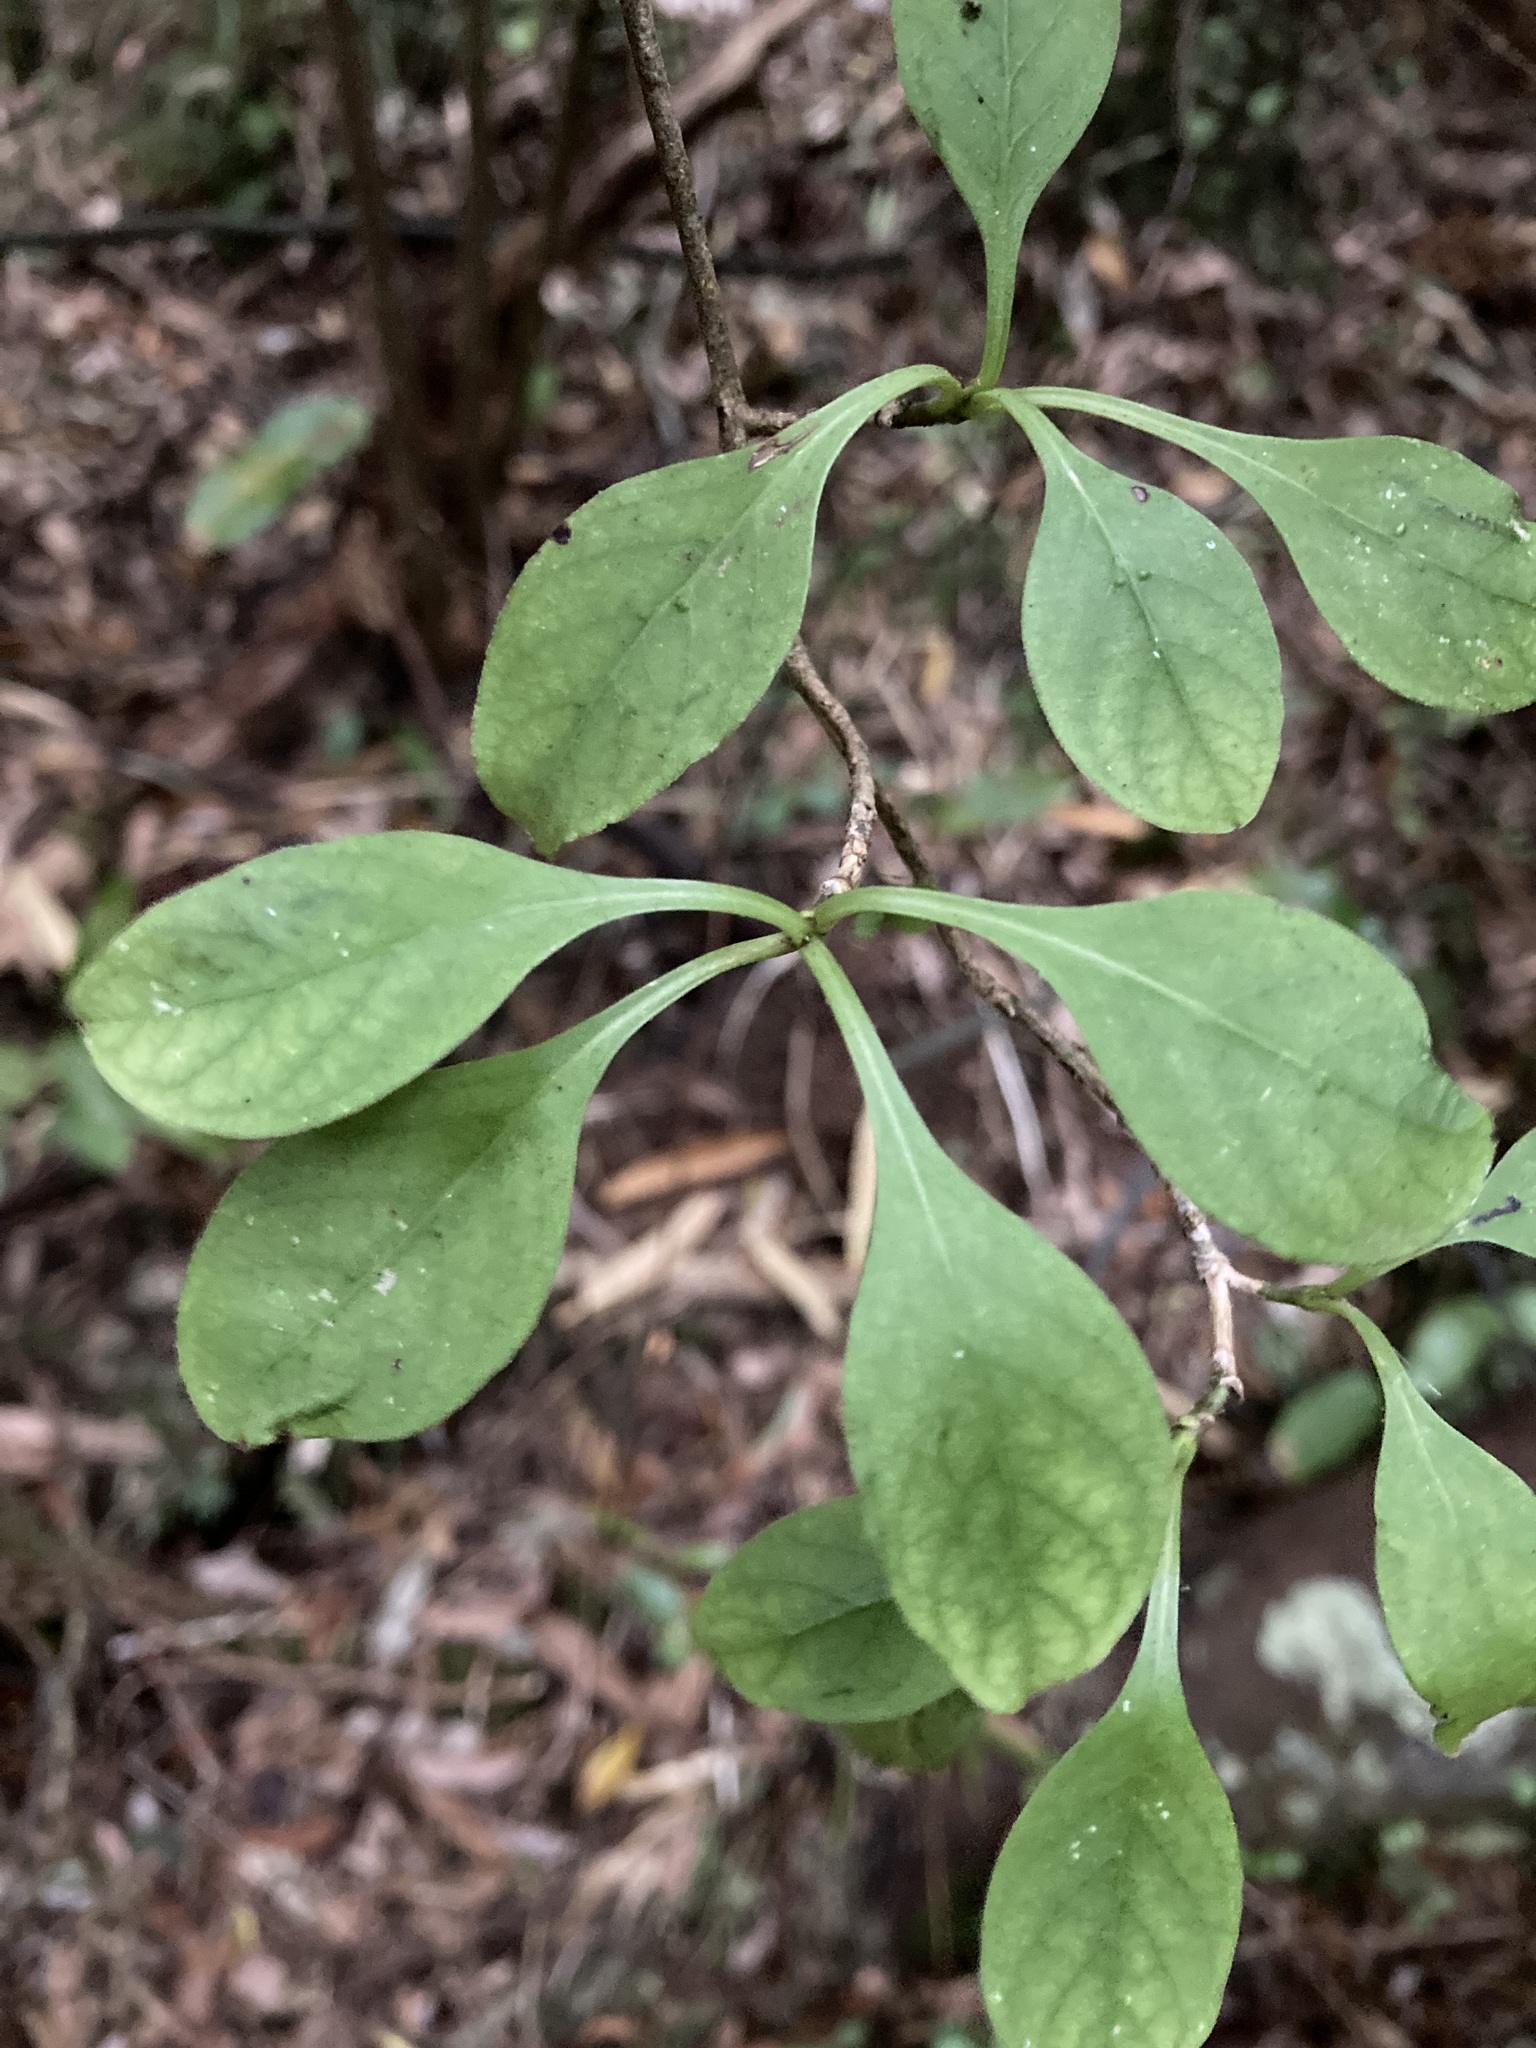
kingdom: Plantae
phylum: Tracheophyta
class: Magnoliopsida
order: Gentianales
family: Rubiaceae
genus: Coprosma
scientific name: Coprosma foetidissima
